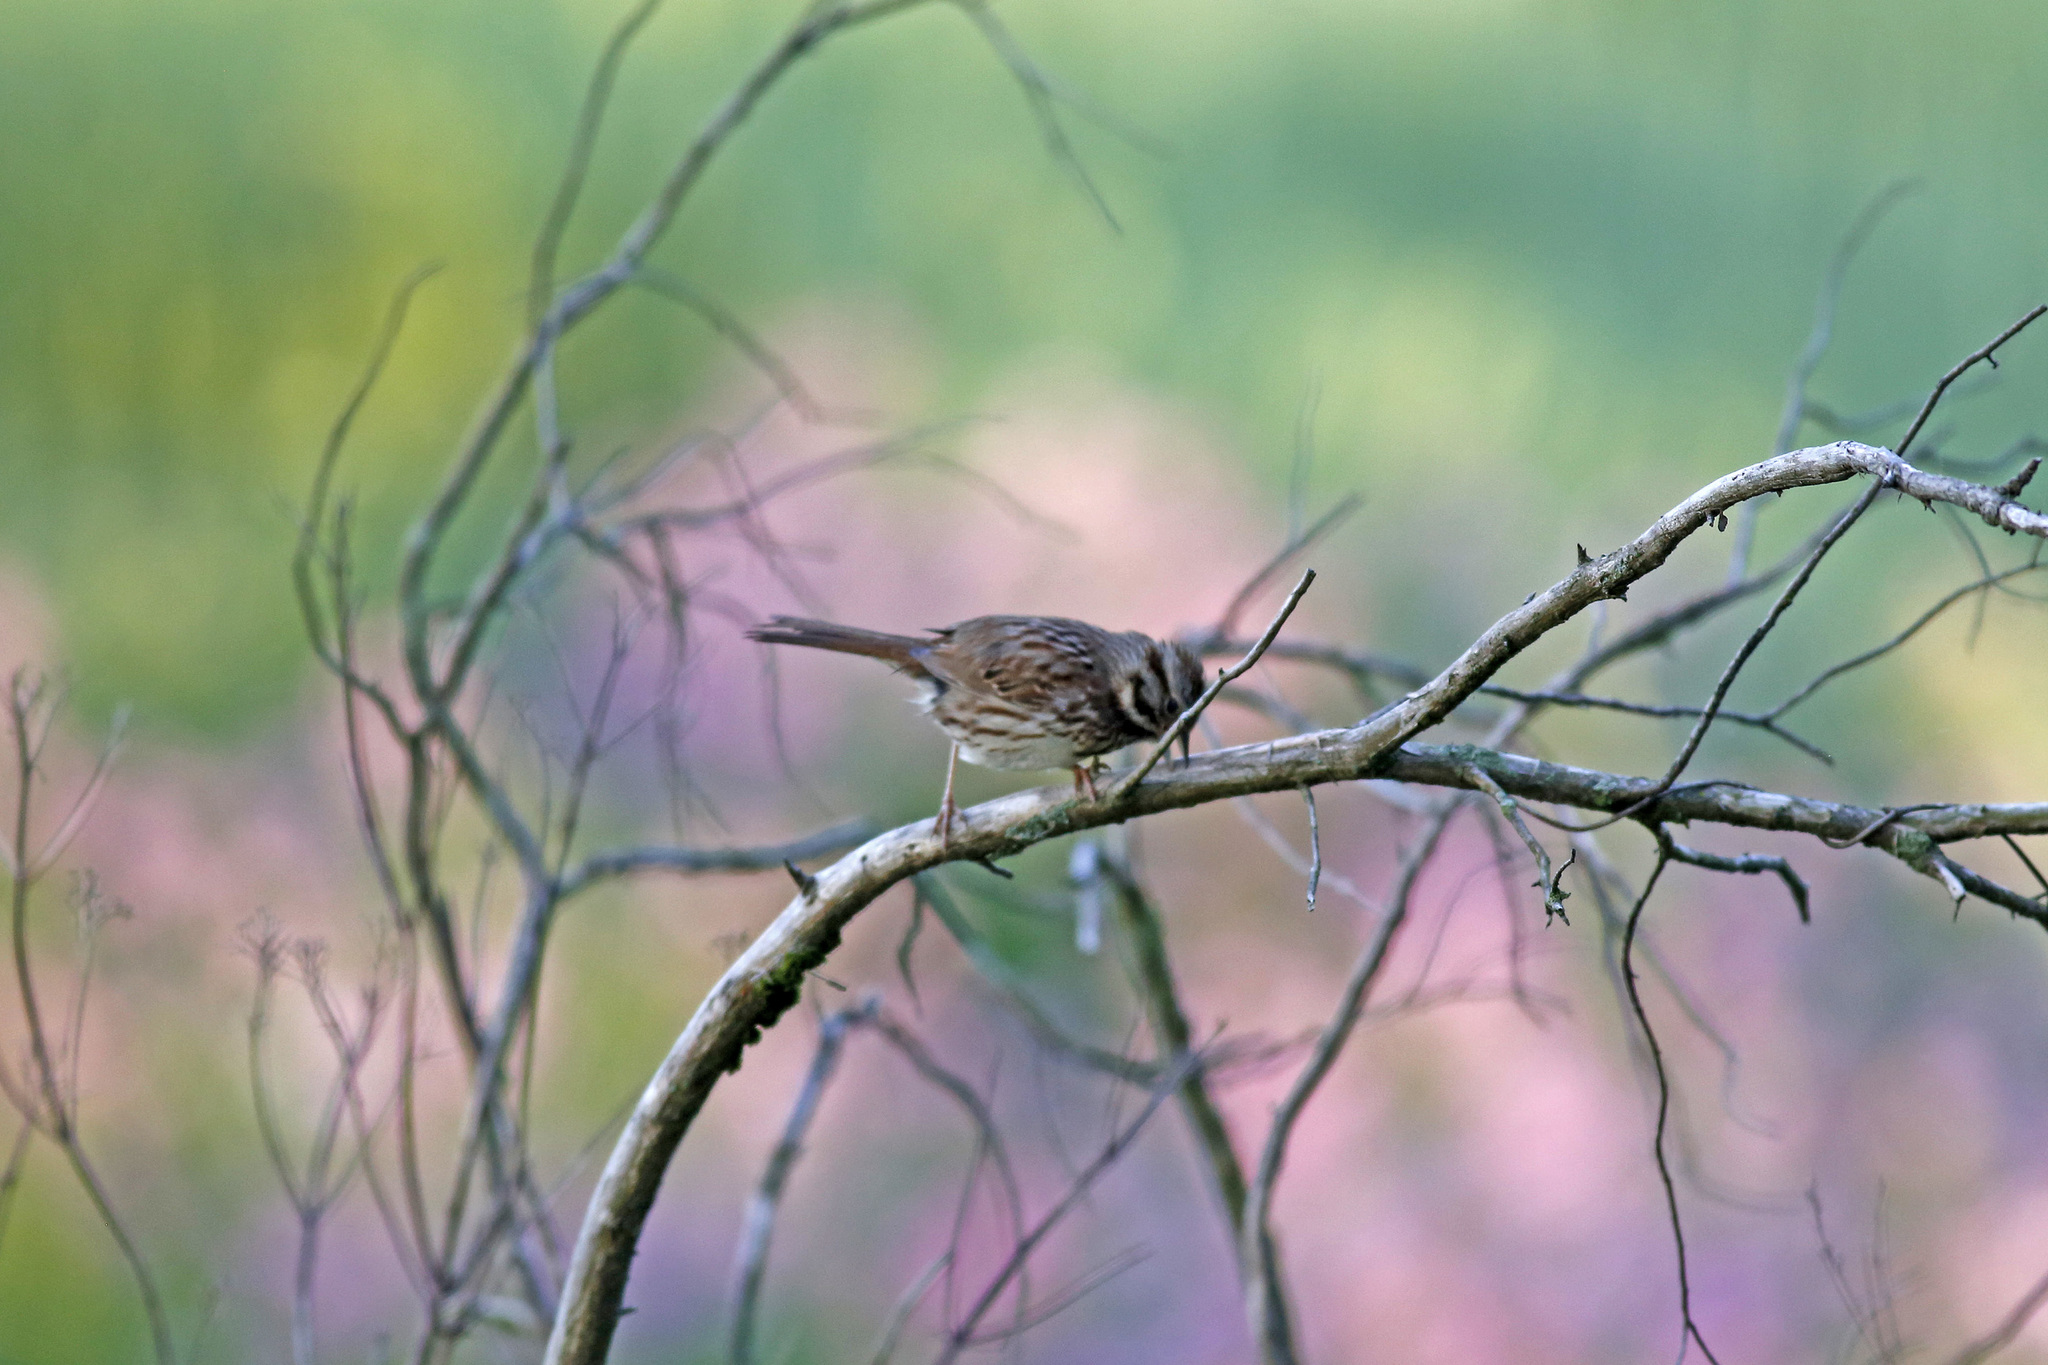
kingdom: Animalia
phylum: Chordata
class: Aves
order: Passeriformes
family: Passerellidae
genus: Melospiza
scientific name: Melospiza melodia
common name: Song sparrow
